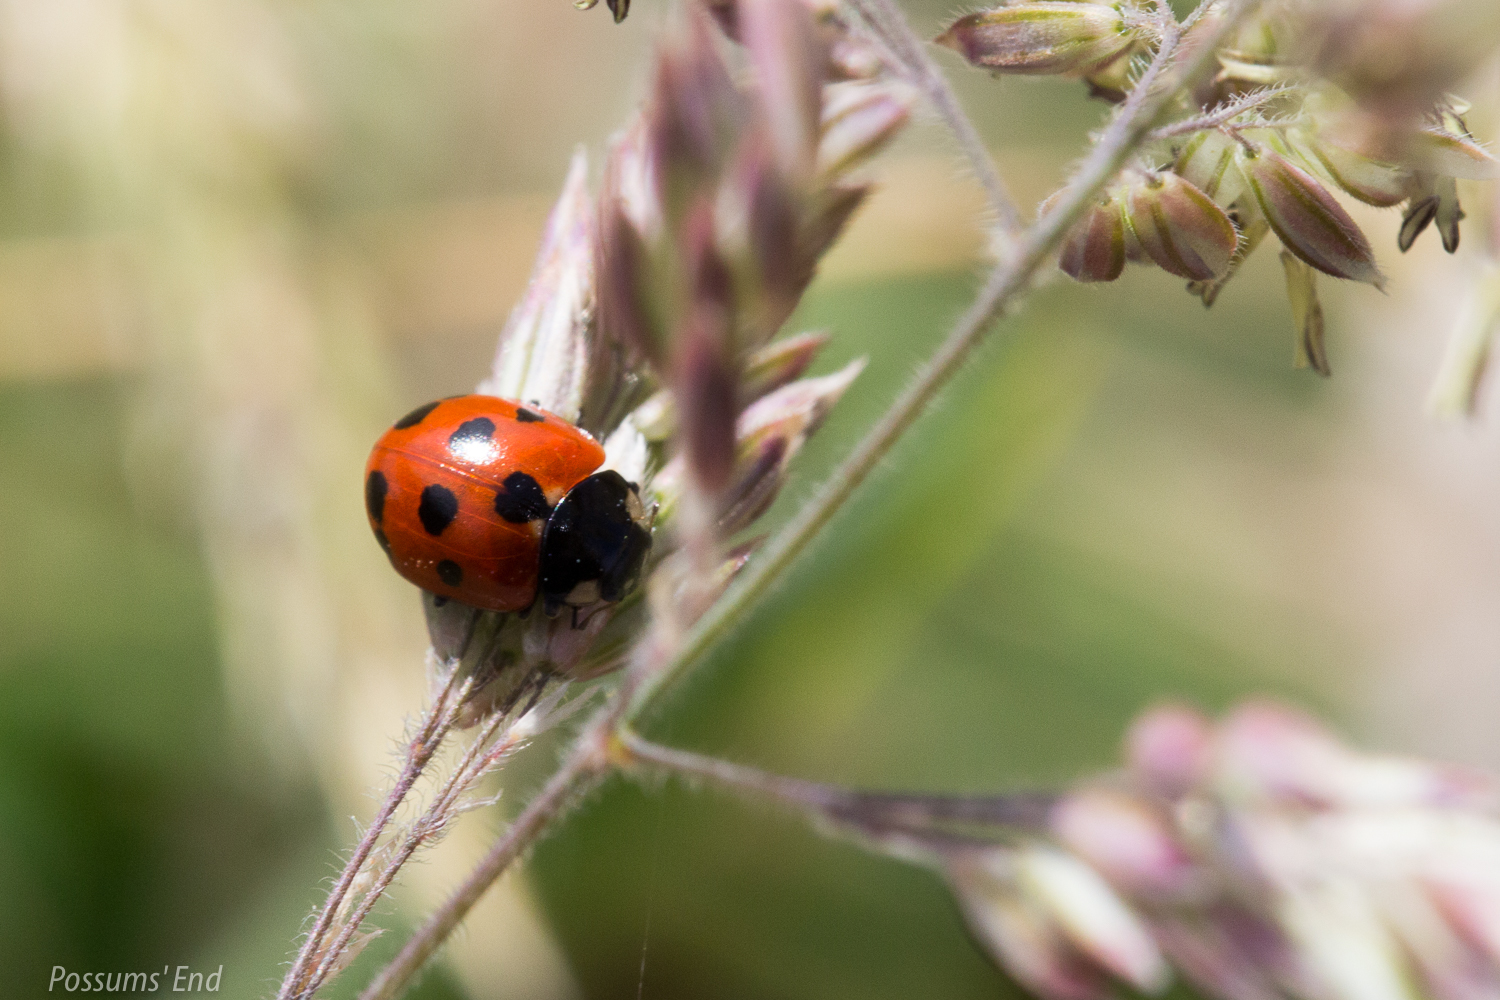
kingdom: Animalia
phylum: Arthropoda
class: Insecta
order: Coleoptera
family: Coccinellidae
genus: Coccinella
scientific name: Coccinella undecimpunctata
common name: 11-spot ladybird
